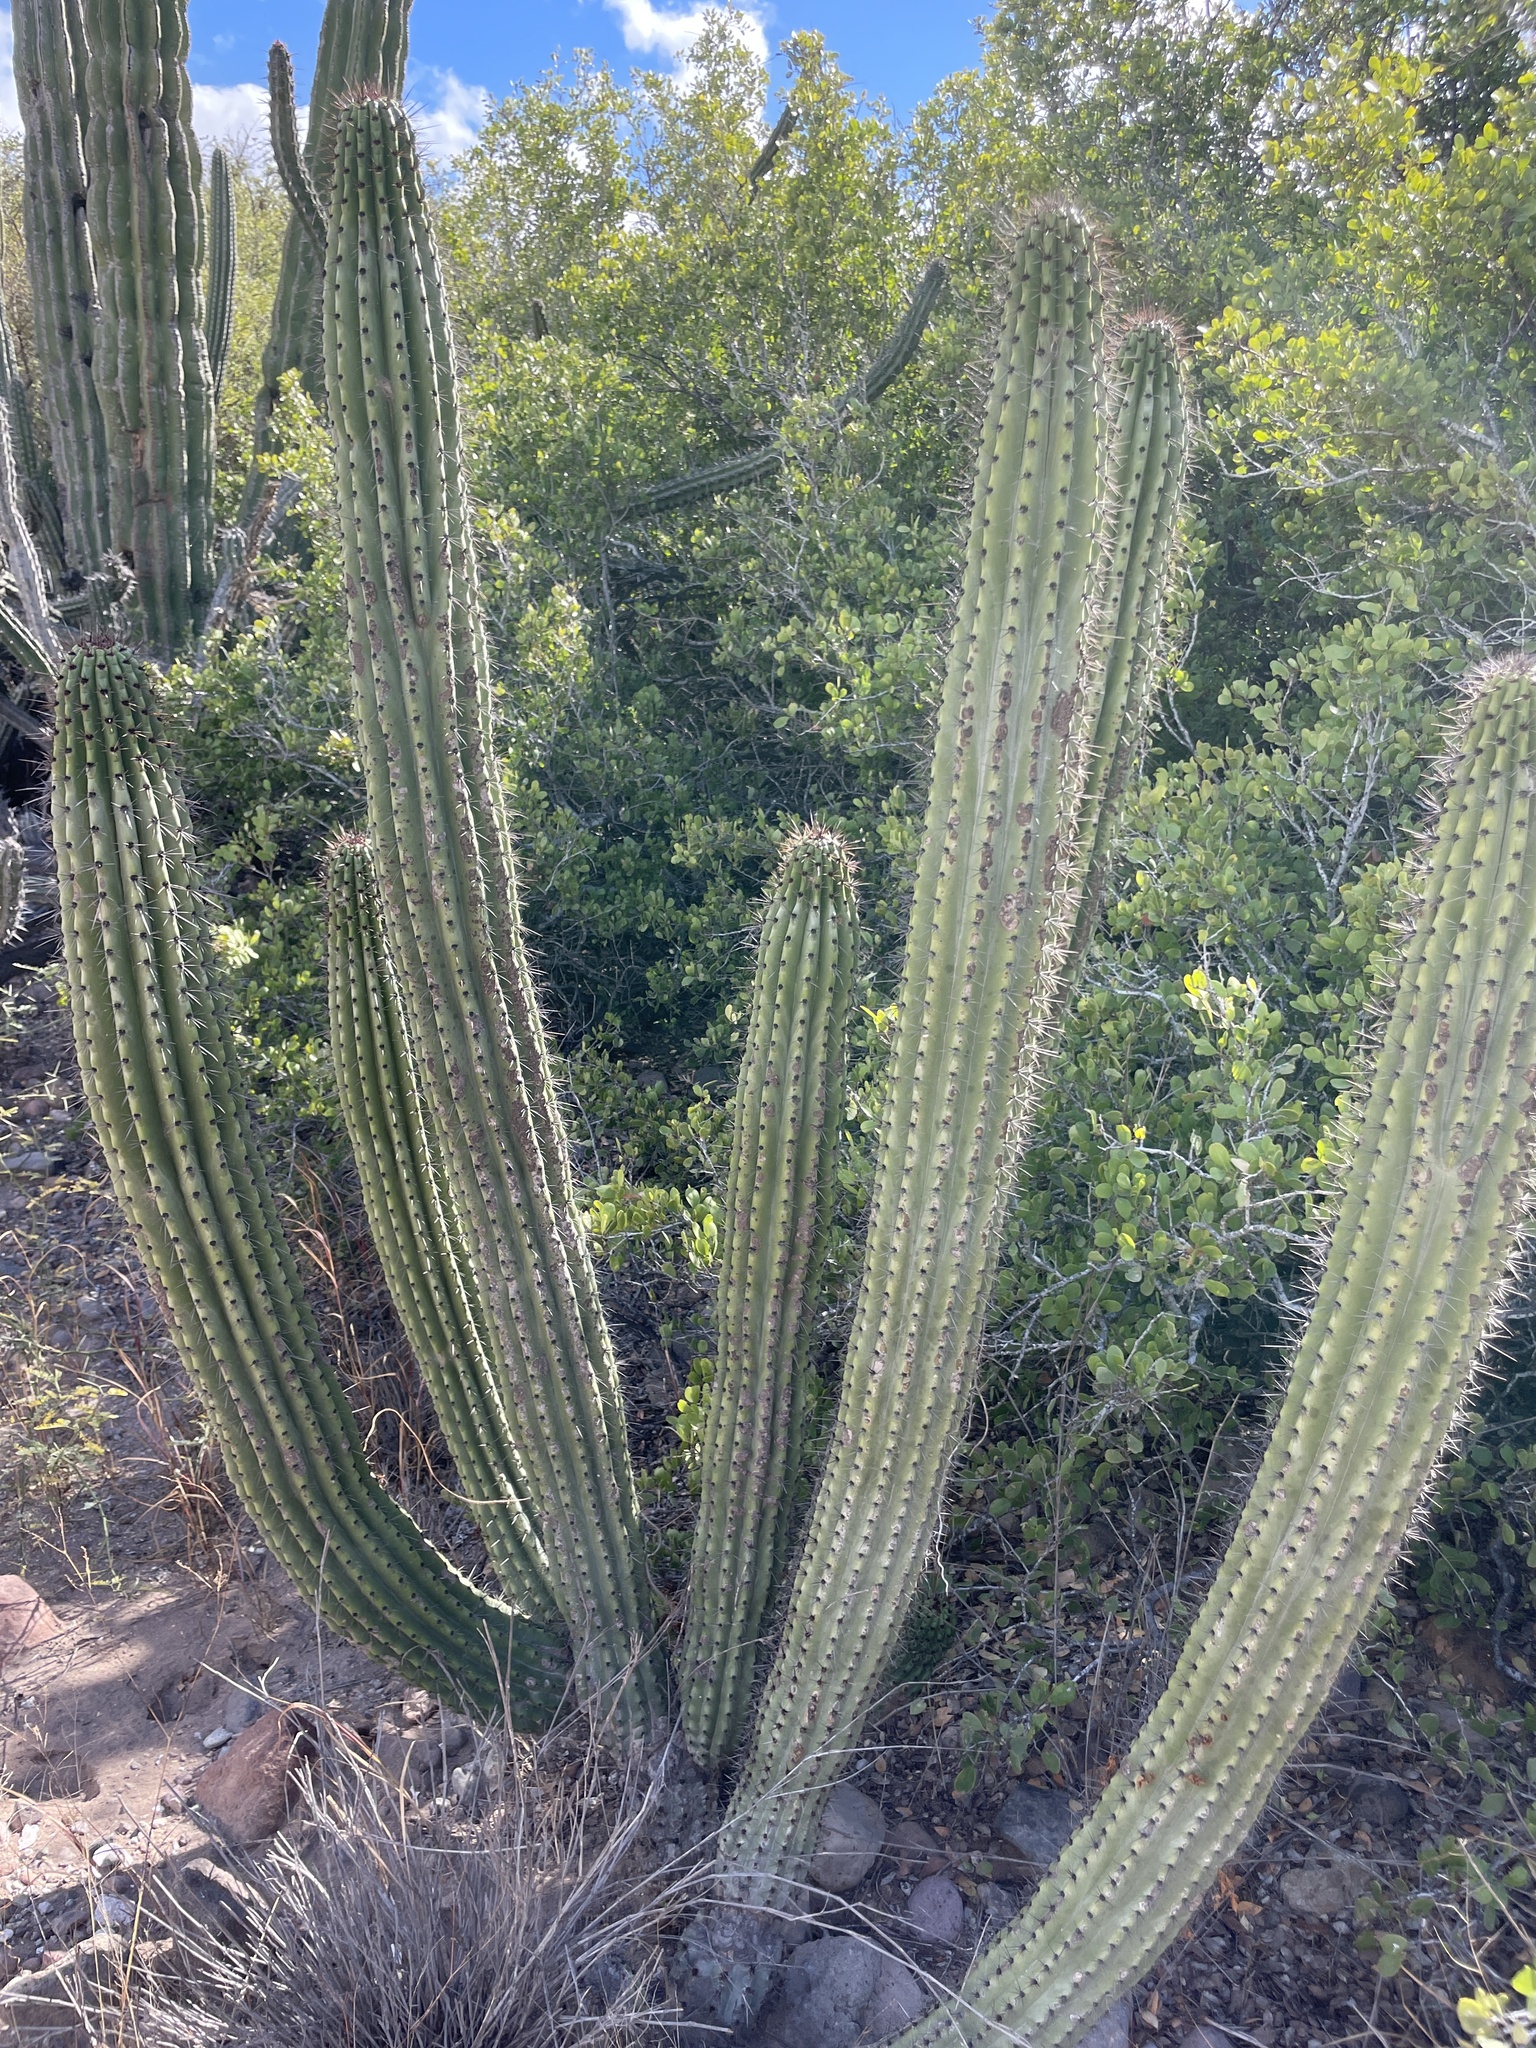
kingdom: Plantae
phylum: Tracheophyta
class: Magnoliopsida
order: Caryophyllales
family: Cactaceae
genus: Stenocereus
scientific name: Stenocereus thurberi
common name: Organ pipe cactus
